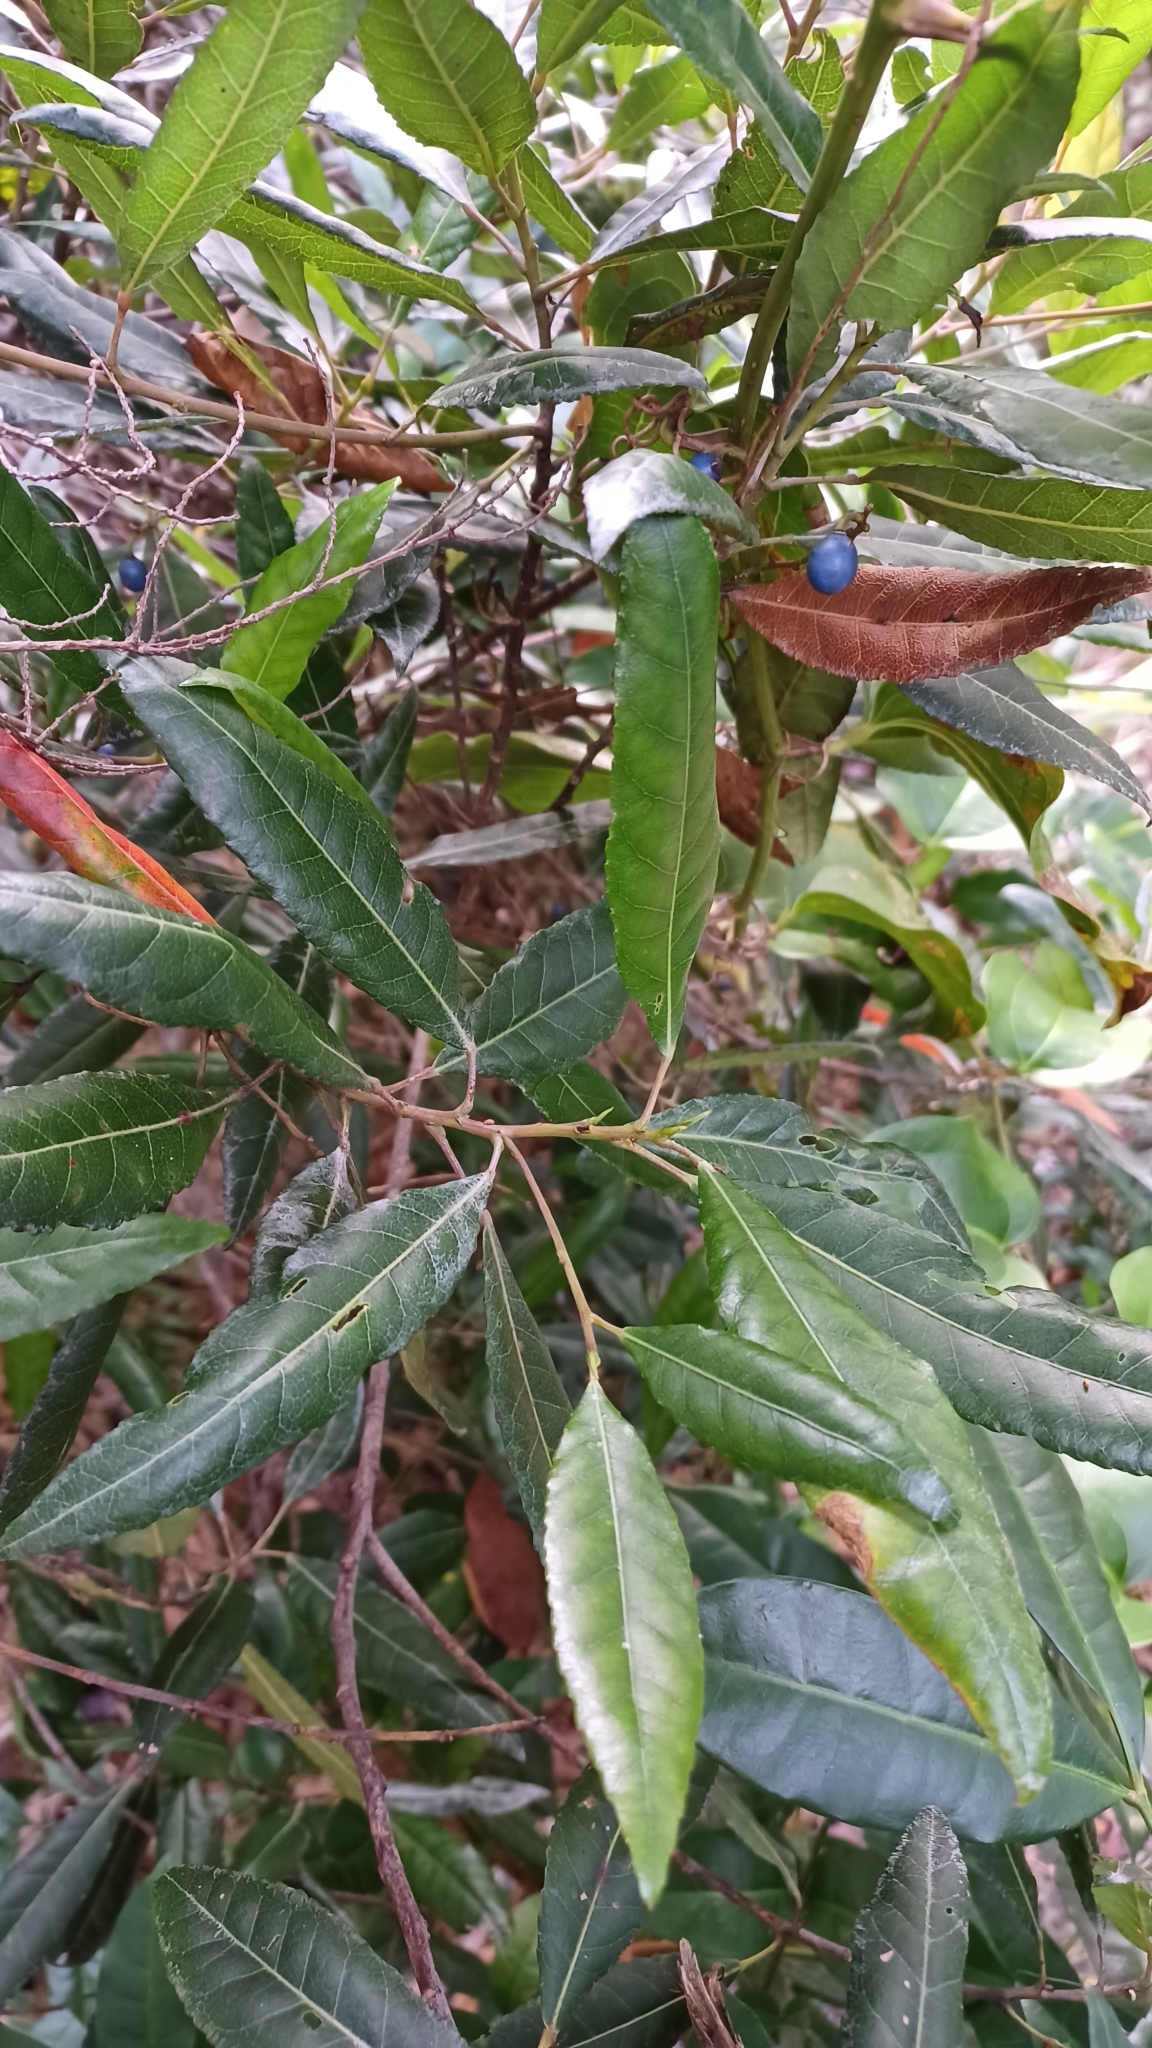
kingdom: Plantae
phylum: Tracheophyta
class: Magnoliopsida
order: Oxalidales
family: Elaeocarpaceae
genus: Elaeocarpus
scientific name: Elaeocarpus reticulatus
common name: Ash quandong
